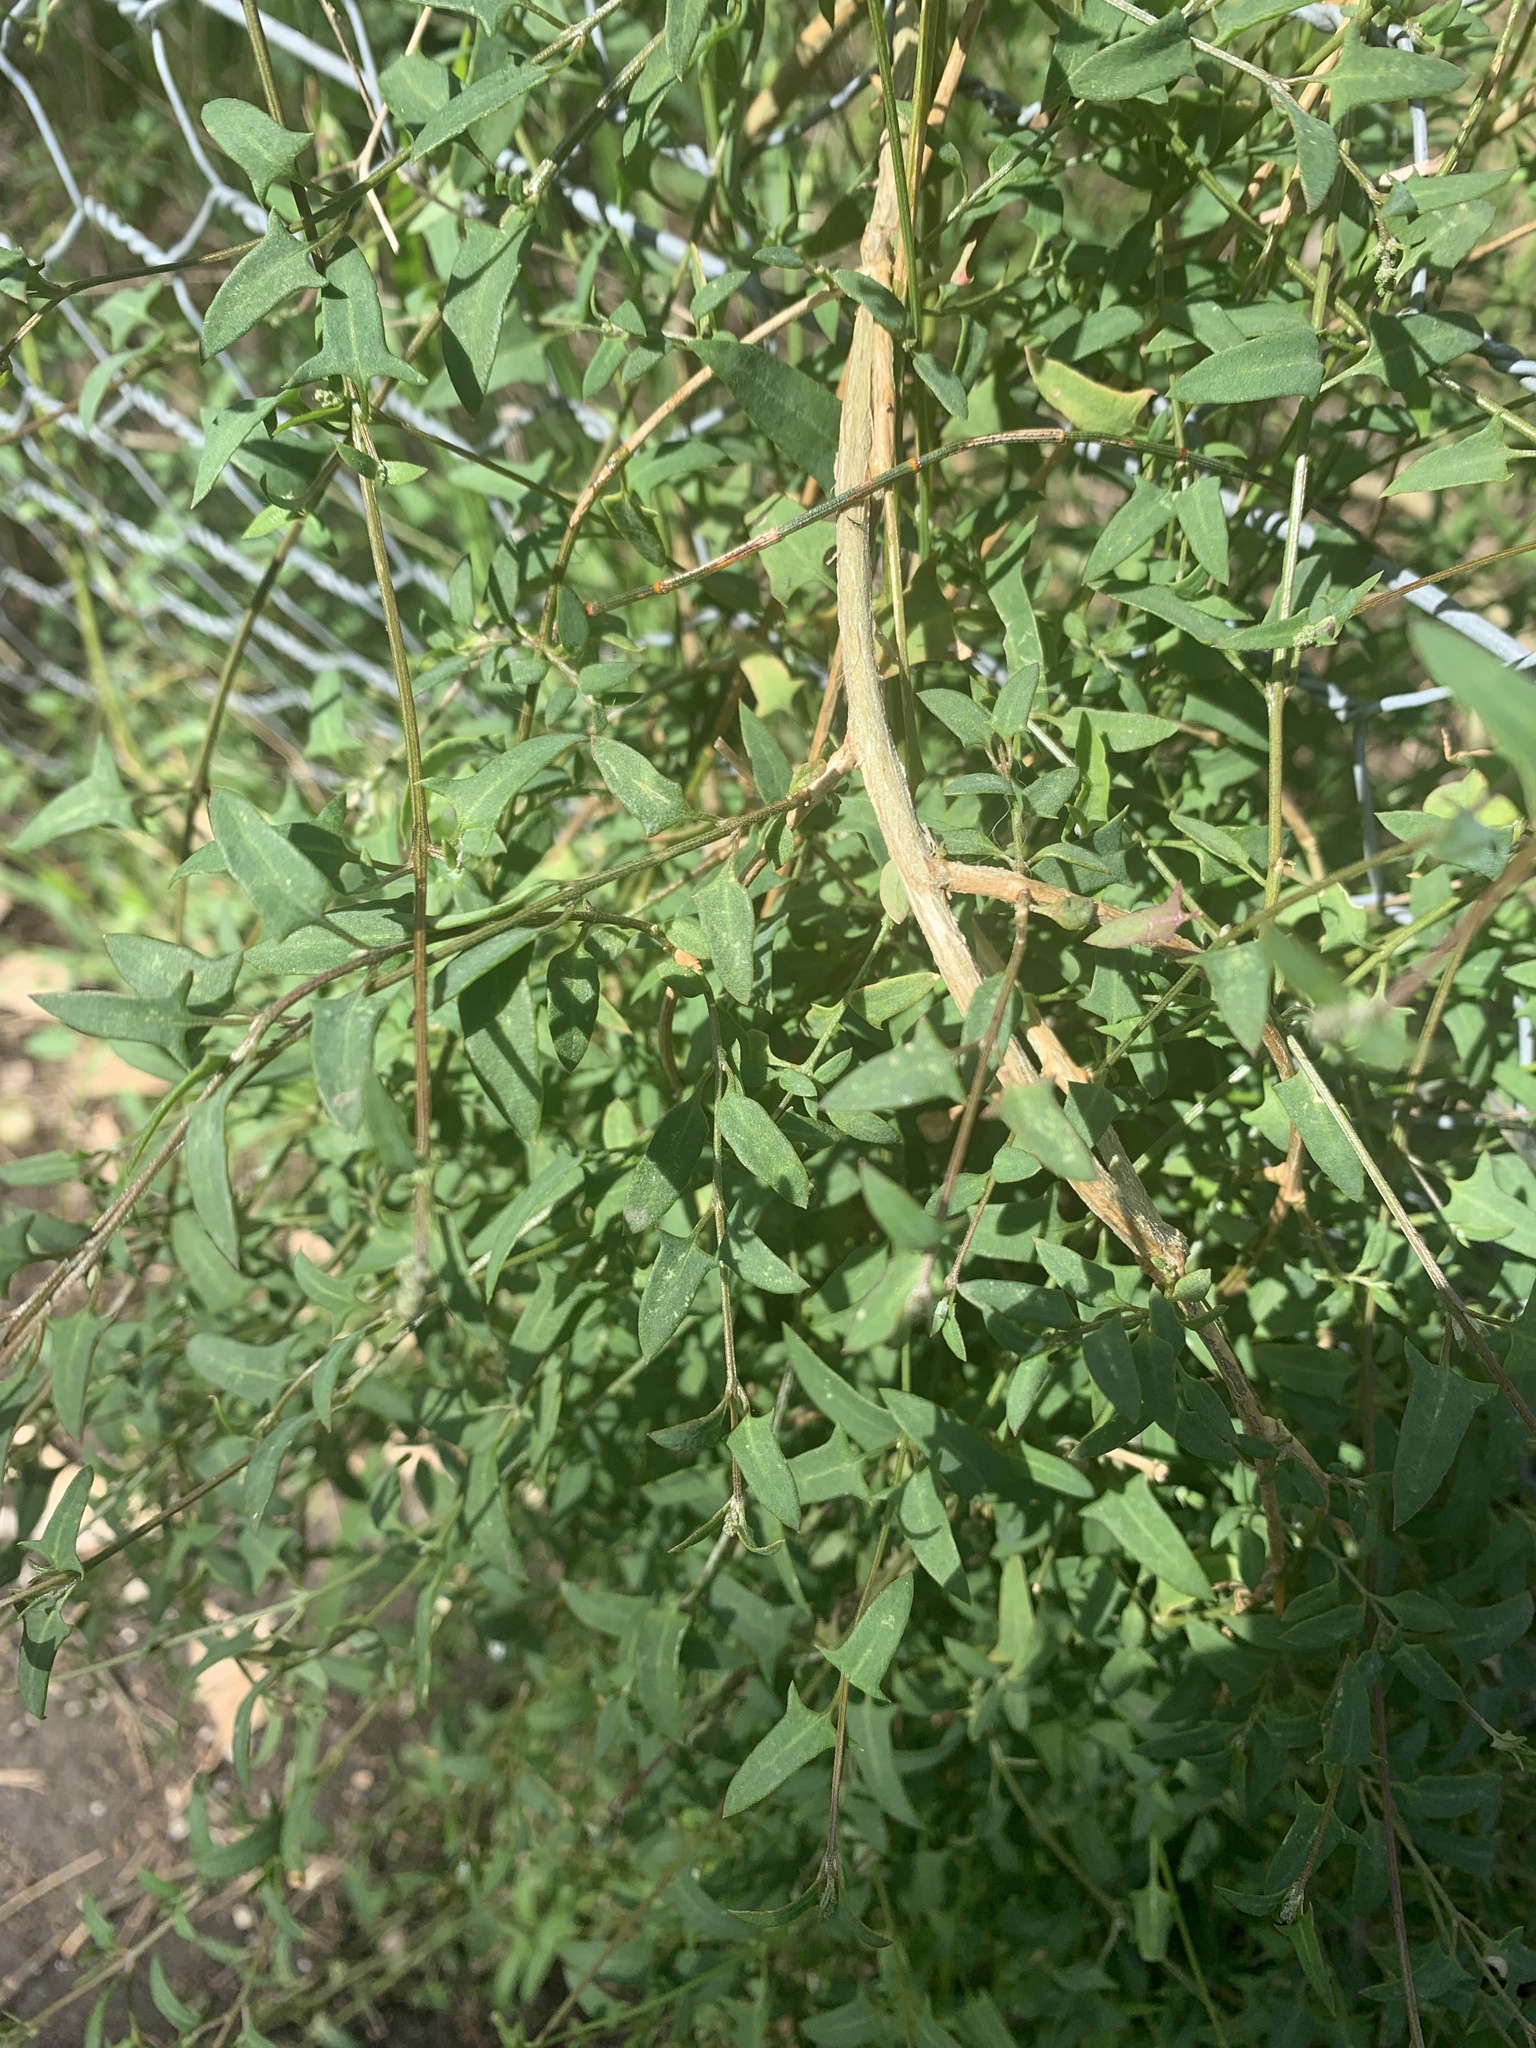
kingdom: Plantae
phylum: Tracheophyta
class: Magnoliopsida
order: Caryophyllales
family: Amaranthaceae
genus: Chenopodium
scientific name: Chenopodium nutans
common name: Climbing-saltbush
